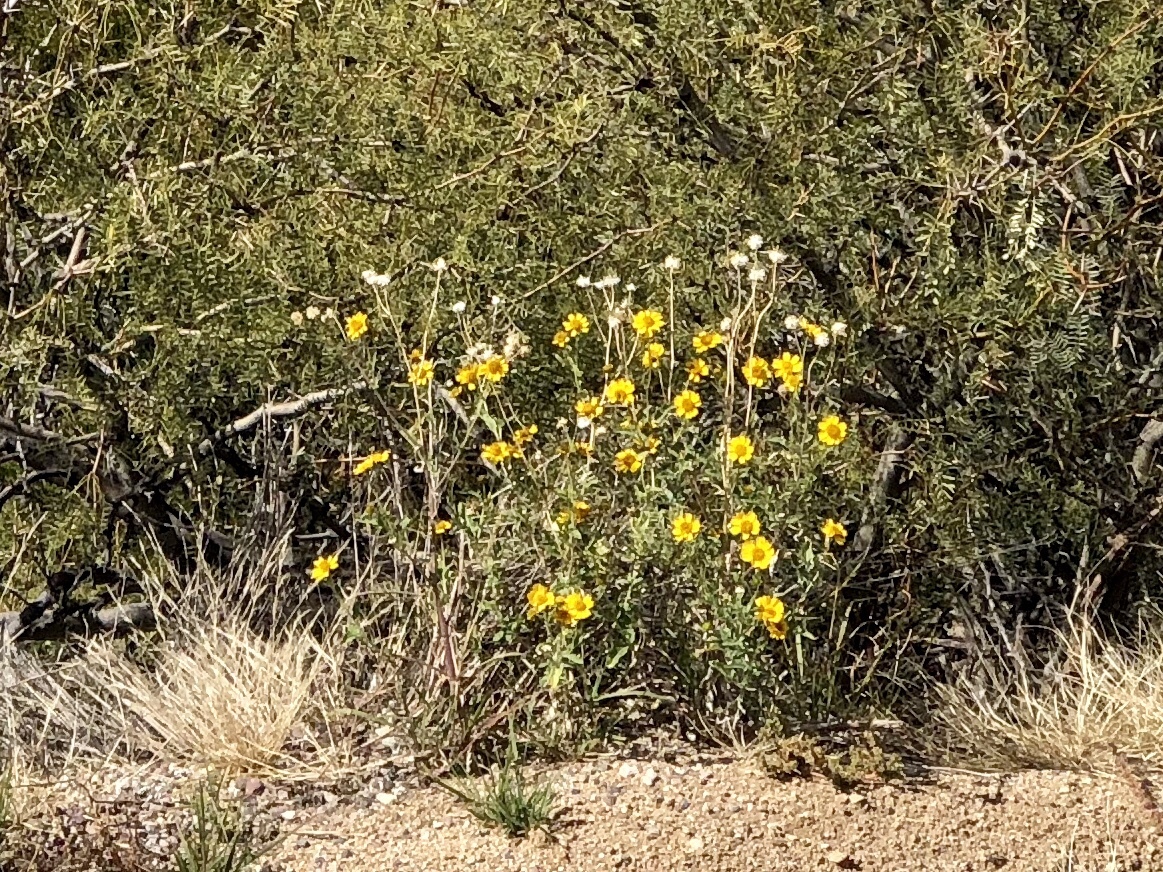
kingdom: Plantae
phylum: Tracheophyta
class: Magnoliopsida
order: Asterales
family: Asteraceae
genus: Verbesina
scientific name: Verbesina encelioides
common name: Golden crownbeard
